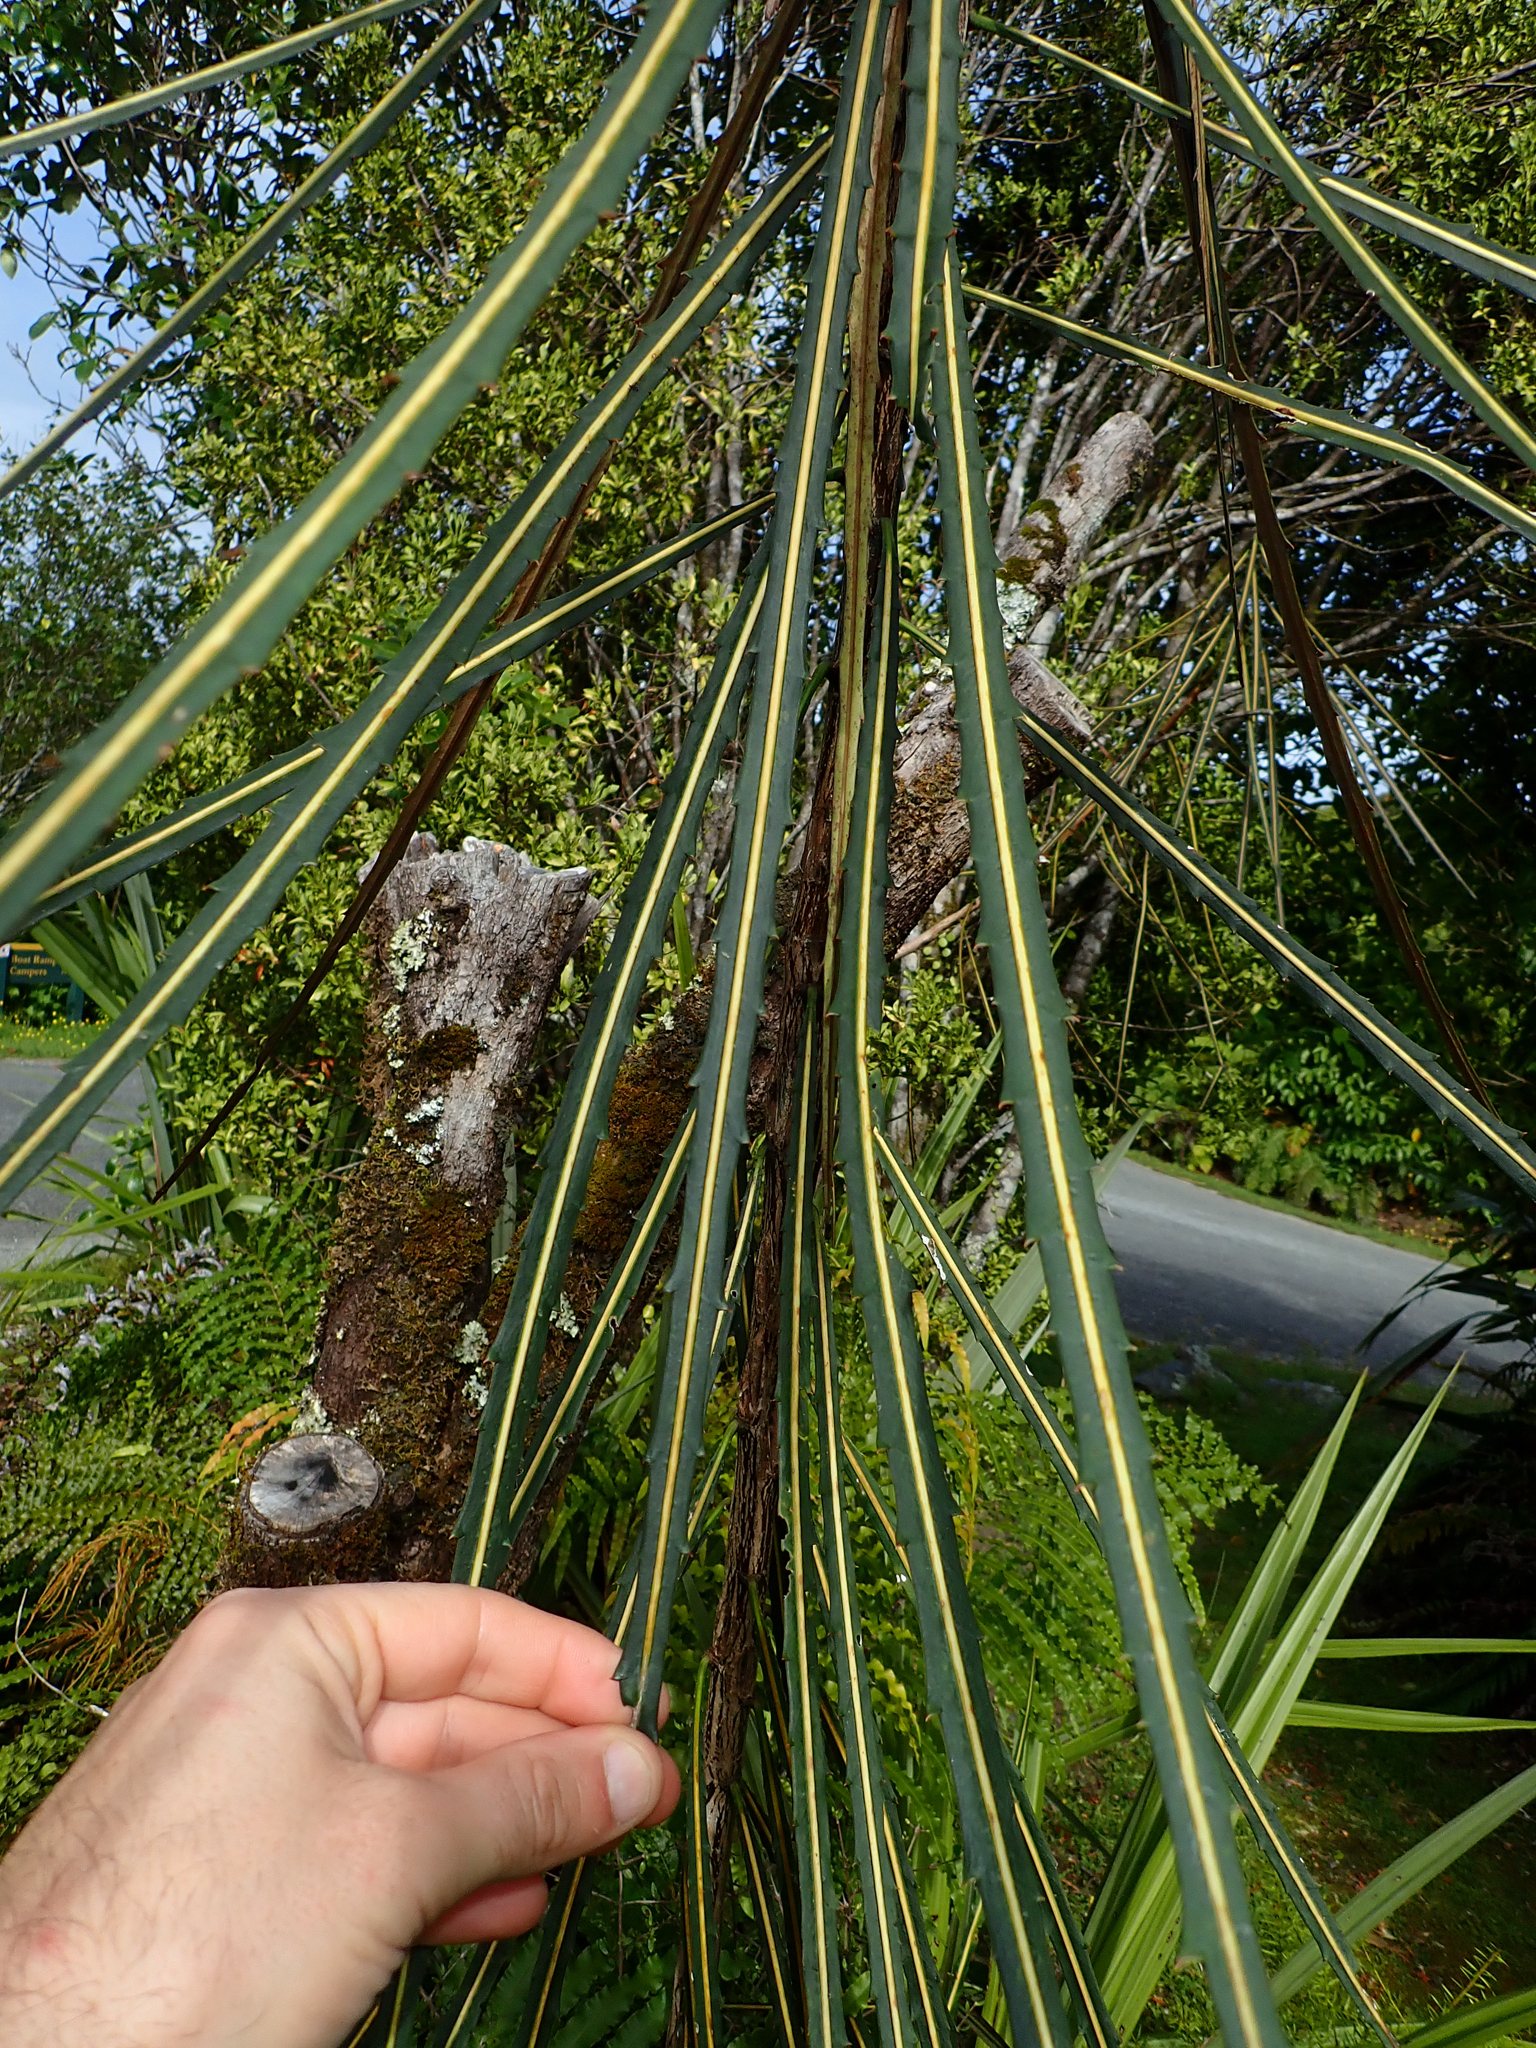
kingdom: Plantae
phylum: Tracheophyta
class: Magnoliopsida
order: Apiales
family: Araliaceae
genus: Pseudopanax
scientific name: Pseudopanax crassifolius
